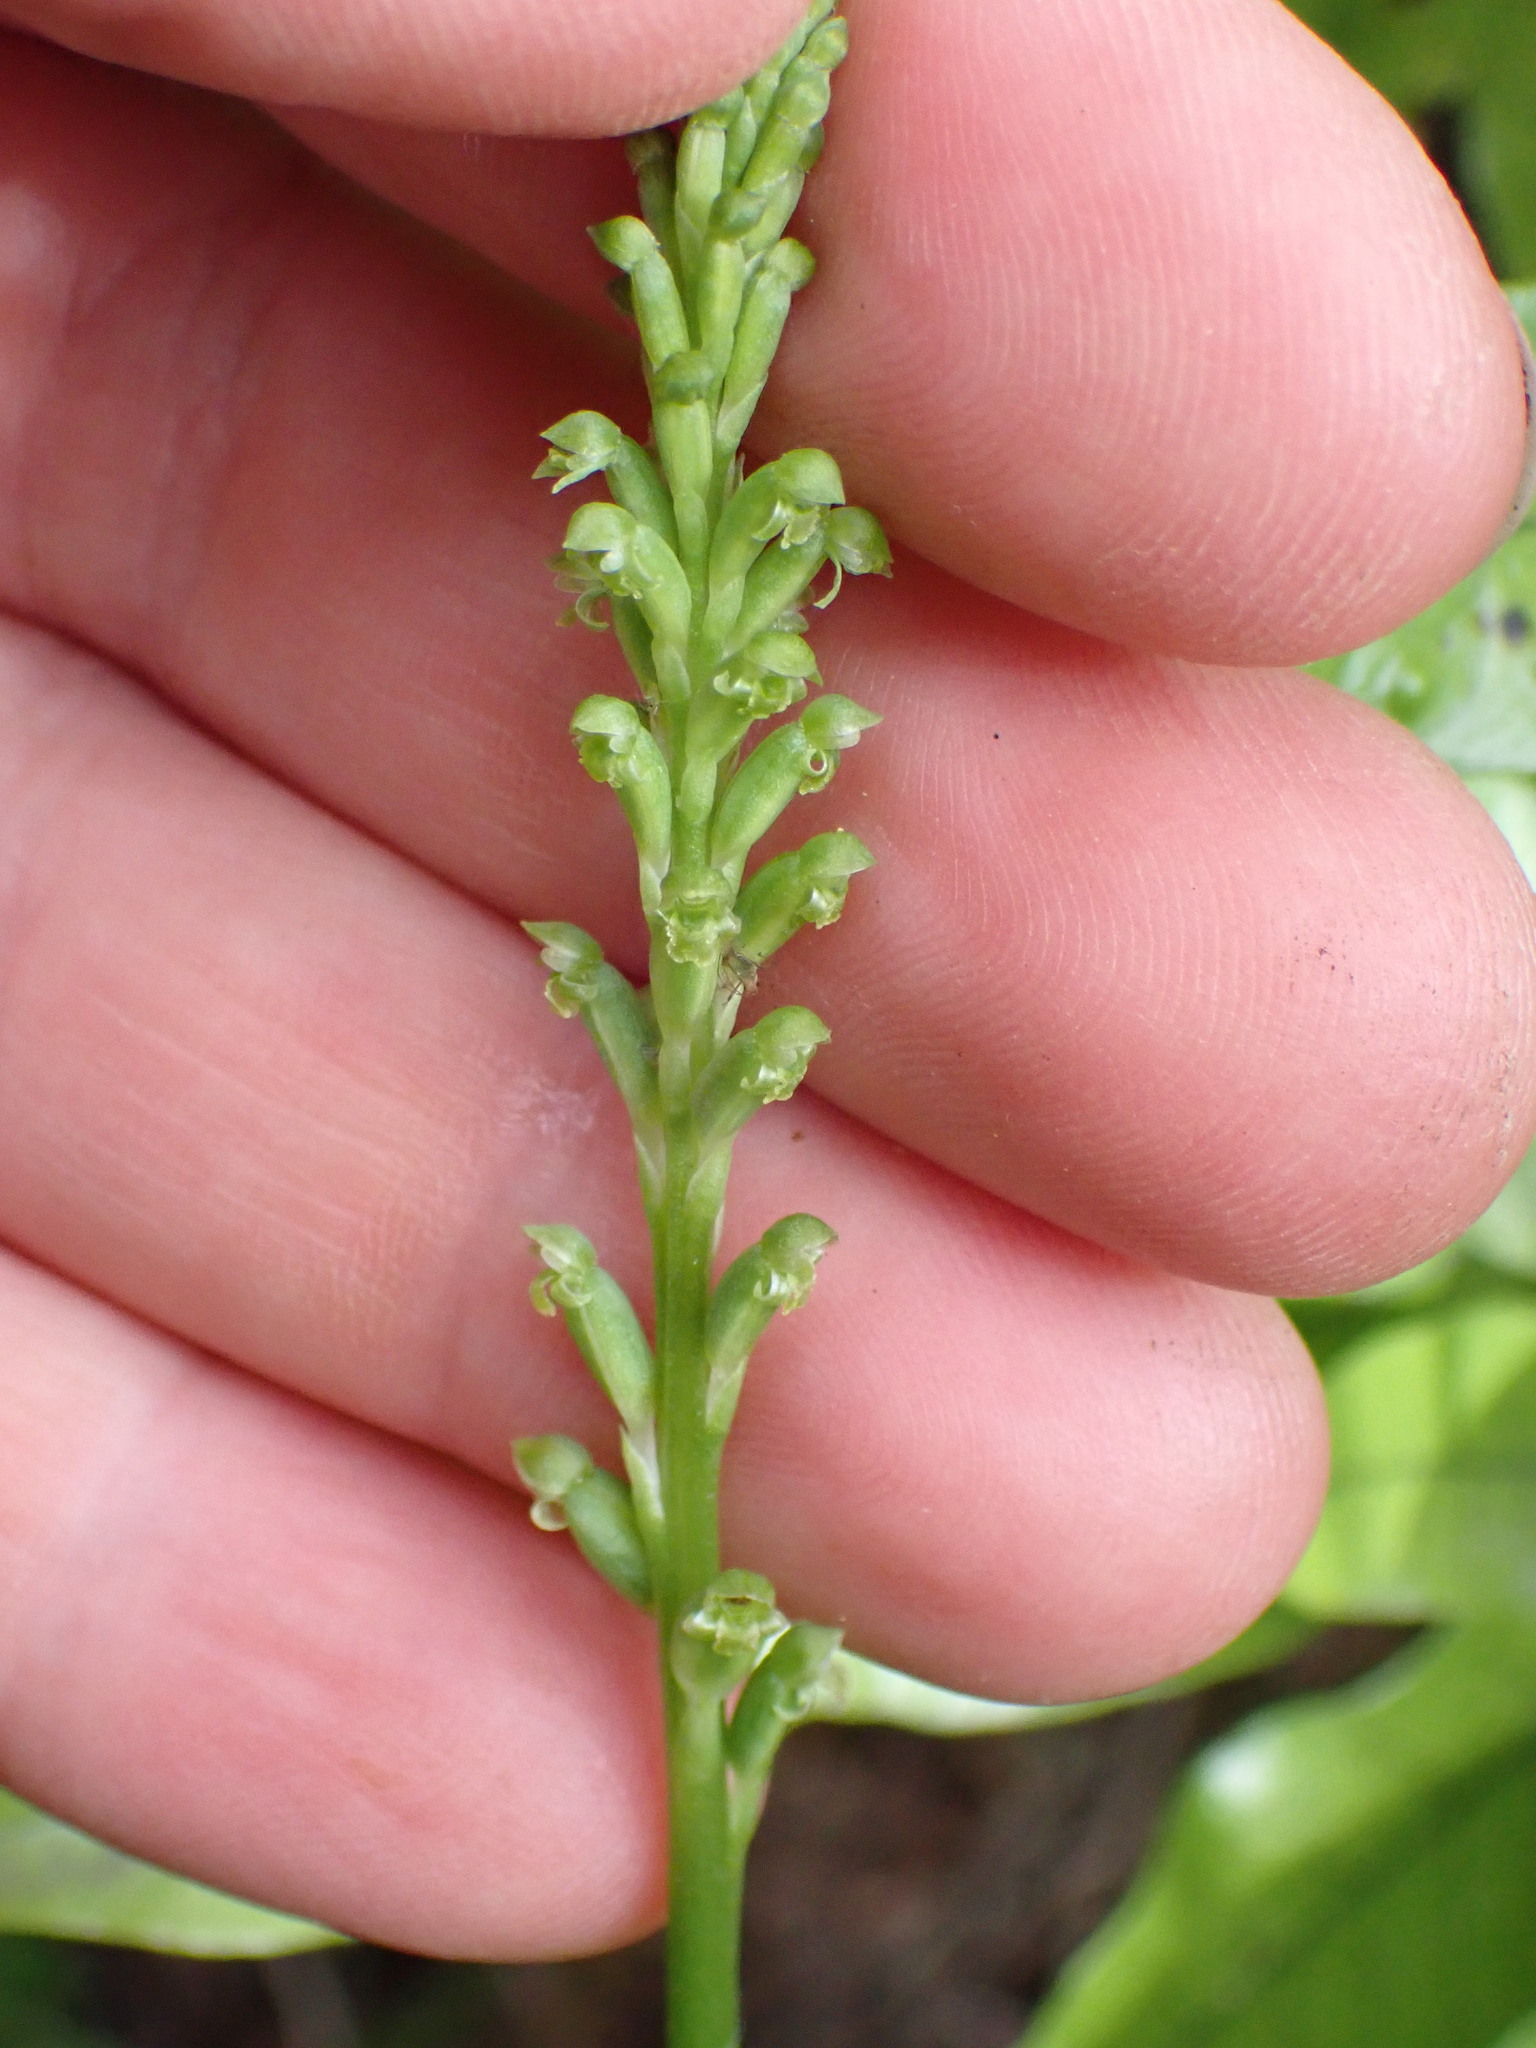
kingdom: Plantae
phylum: Tracheophyta
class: Liliopsida
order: Asparagales
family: Orchidaceae
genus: Microtis
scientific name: Microtis unifolia
